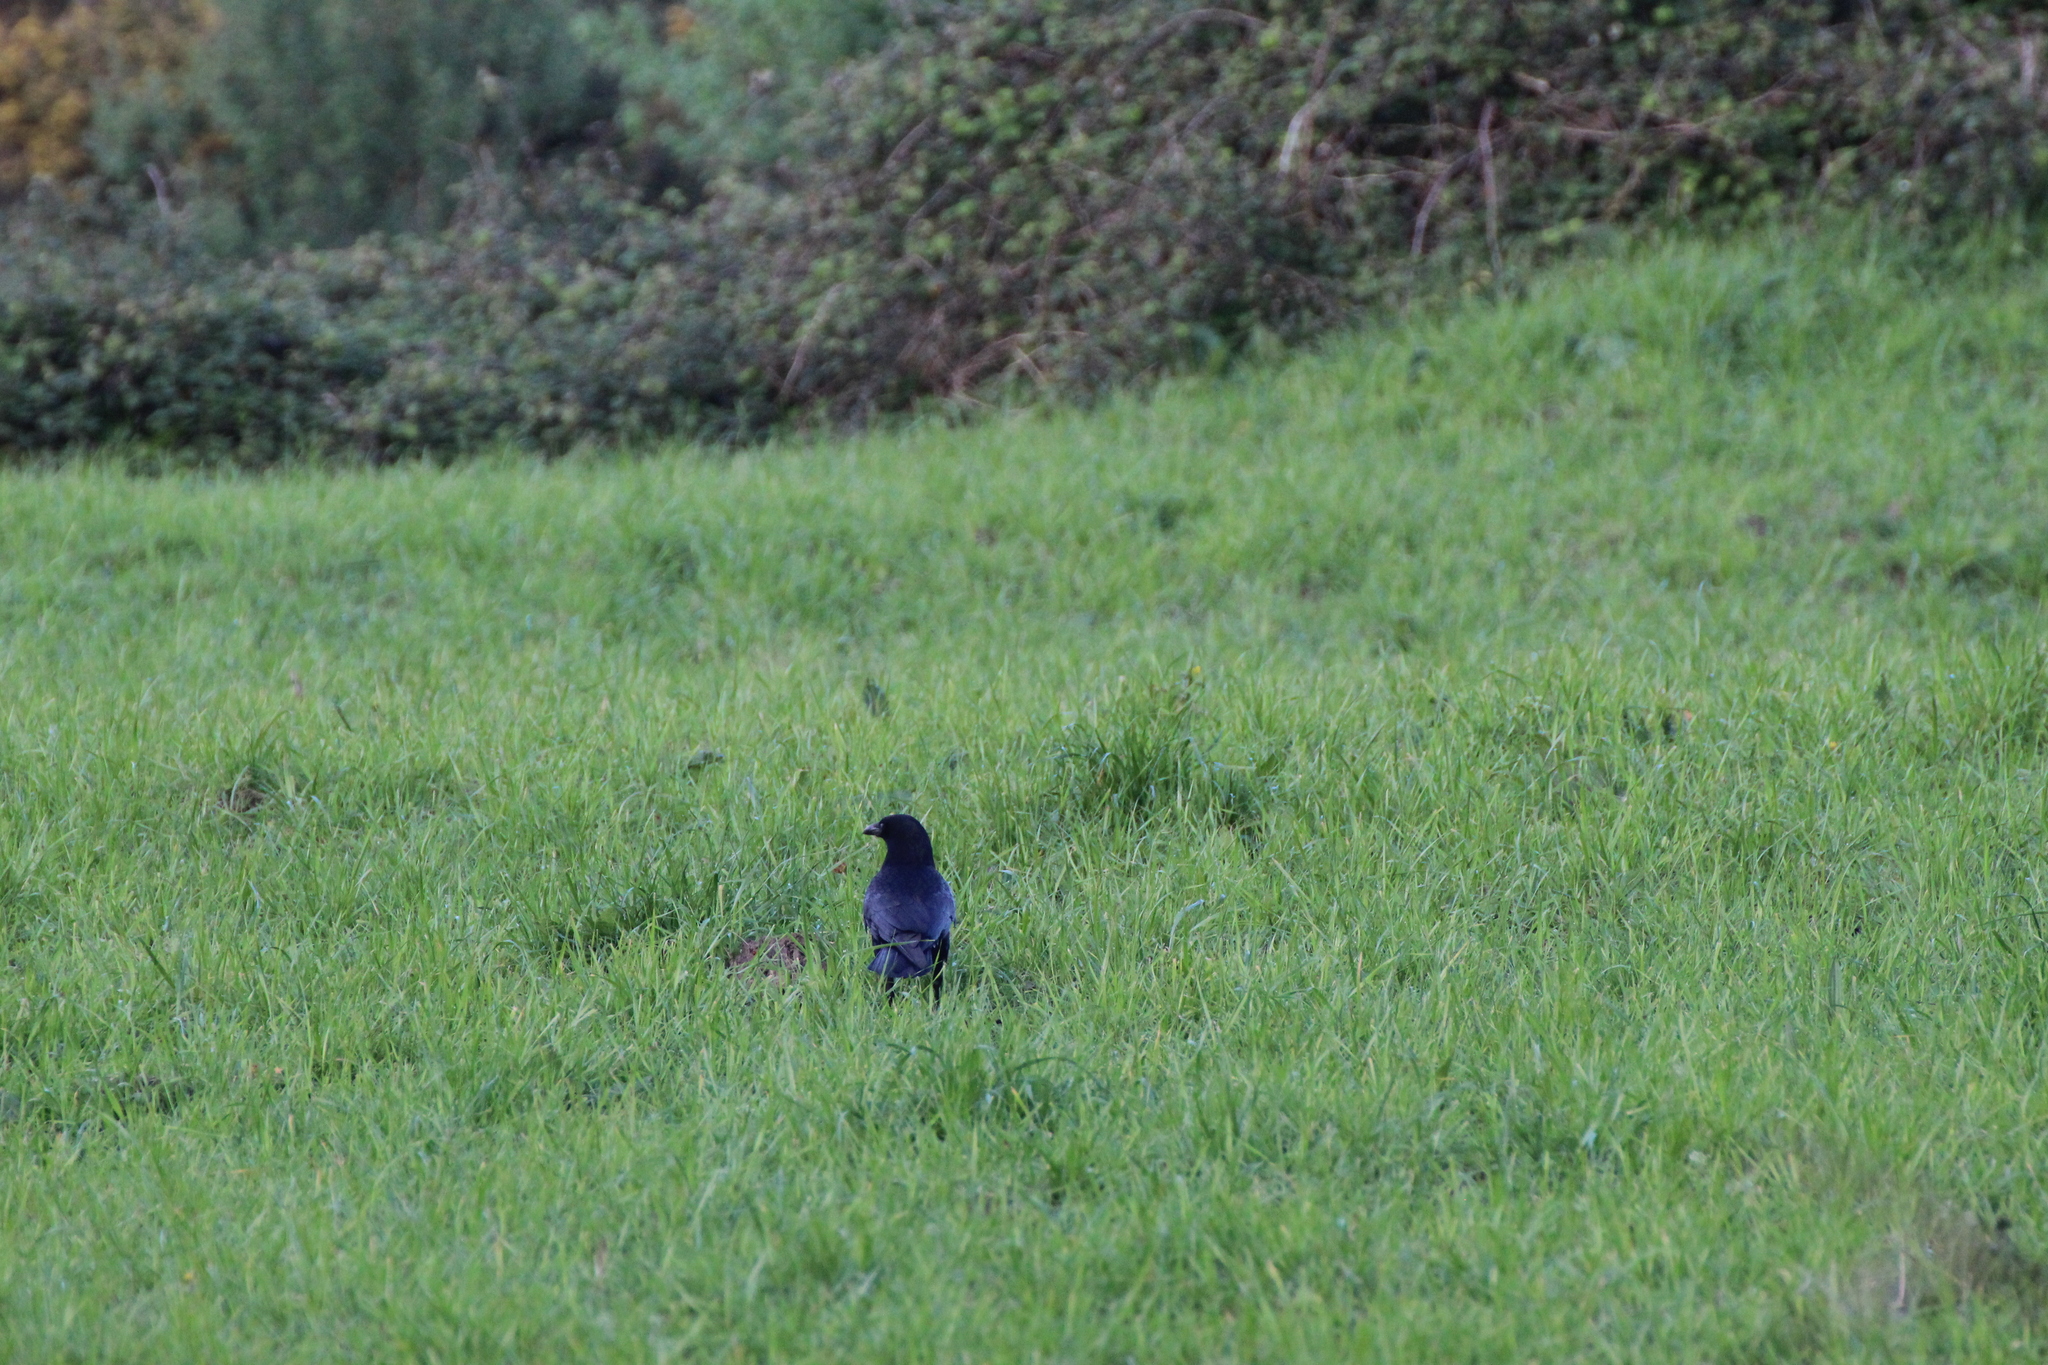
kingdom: Animalia
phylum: Chordata
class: Aves
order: Passeriformes
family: Corvidae
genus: Corvus
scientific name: Corvus corone
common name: Carrion crow
